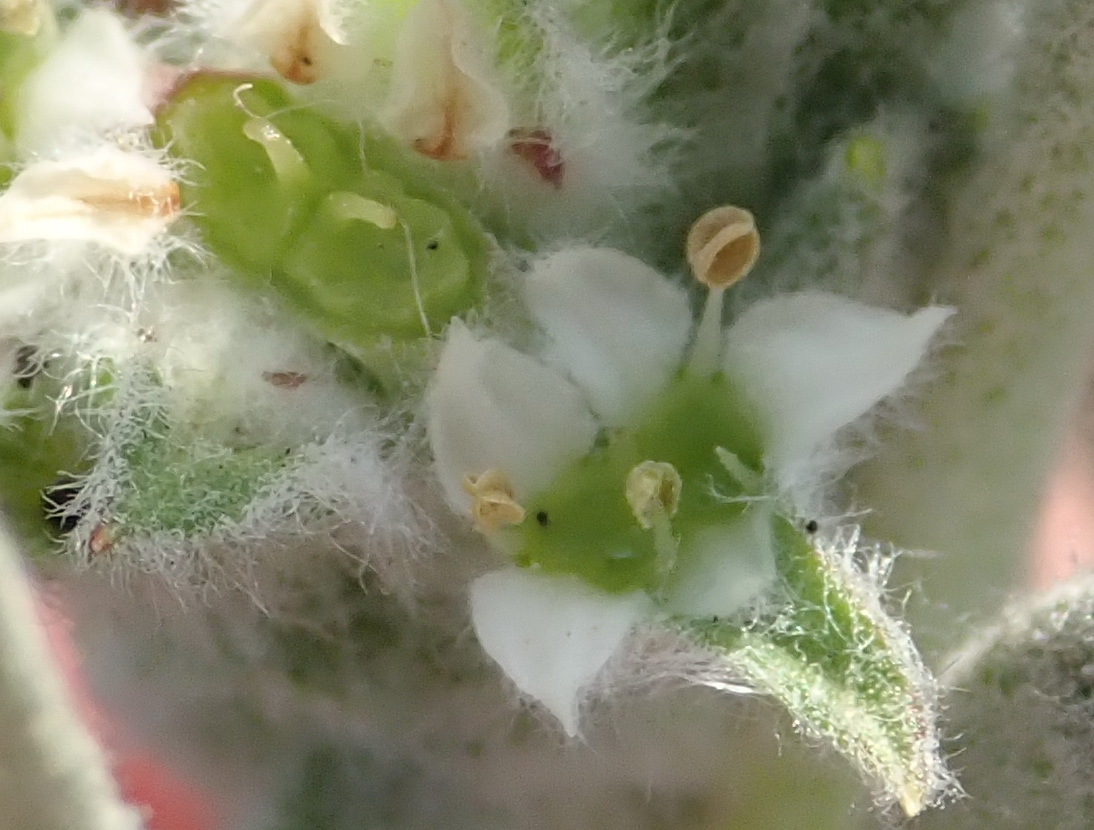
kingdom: Plantae
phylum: Tracheophyta
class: Magnoliopsida
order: Apiales
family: Apiaceae
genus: Centella
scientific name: Centella tridentata
